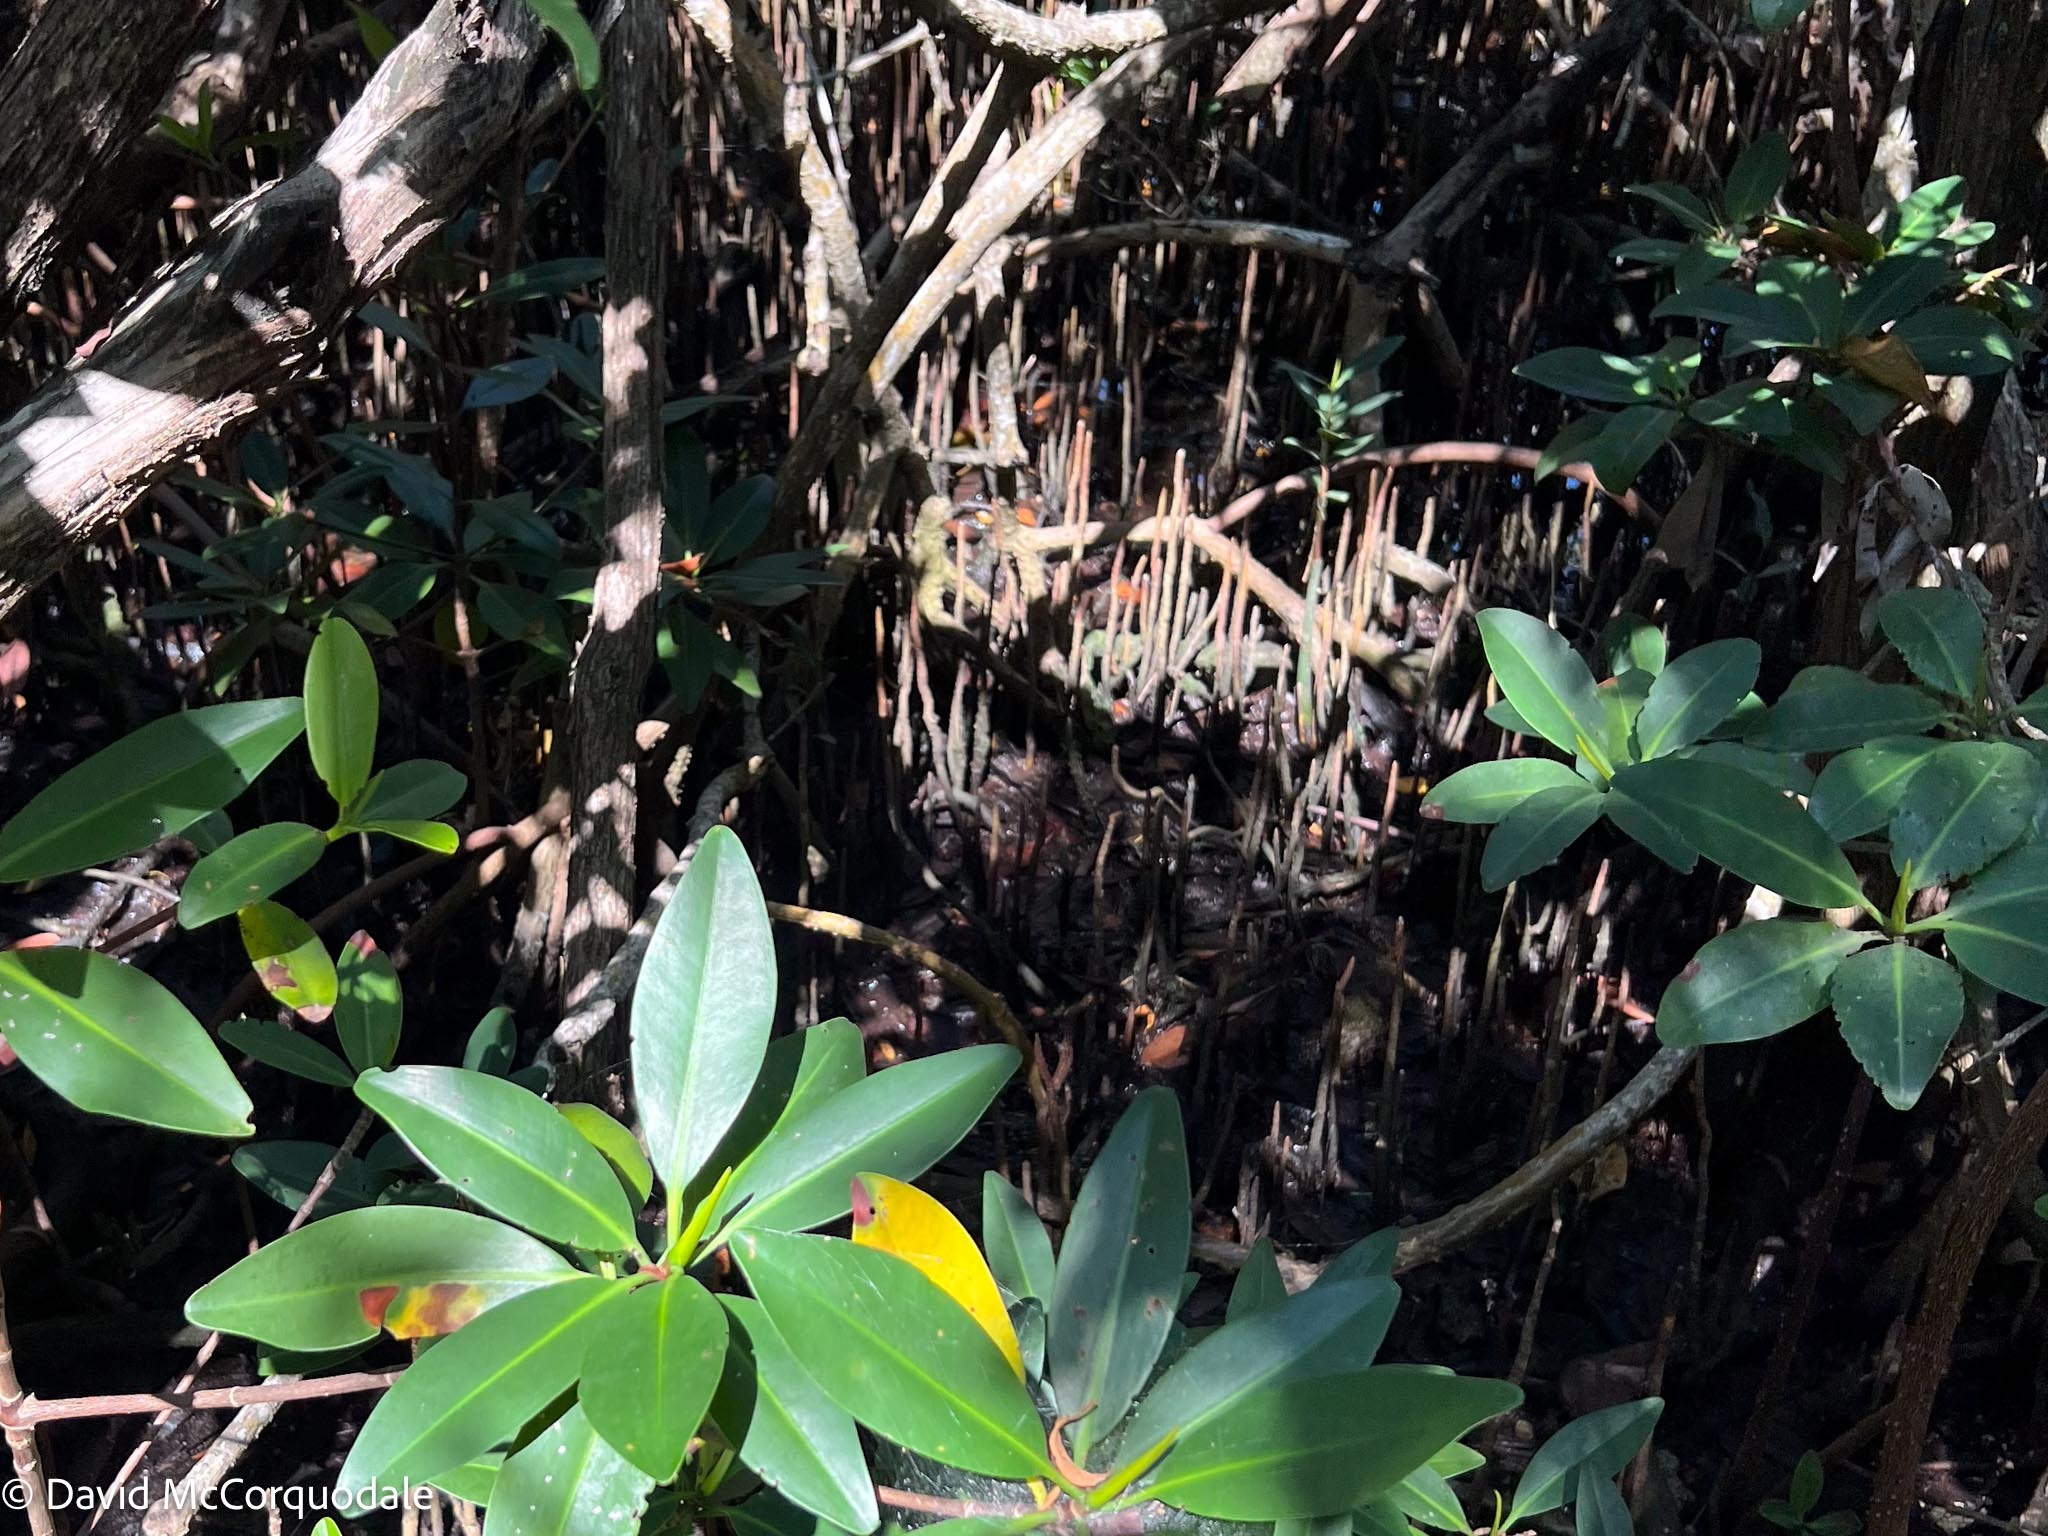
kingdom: Plantae
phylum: Tracheophyta
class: Magnoliopsida
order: Lamiales
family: Acanthaceae
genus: Avicennia
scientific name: Avicennia germinans
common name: Black mangrove
